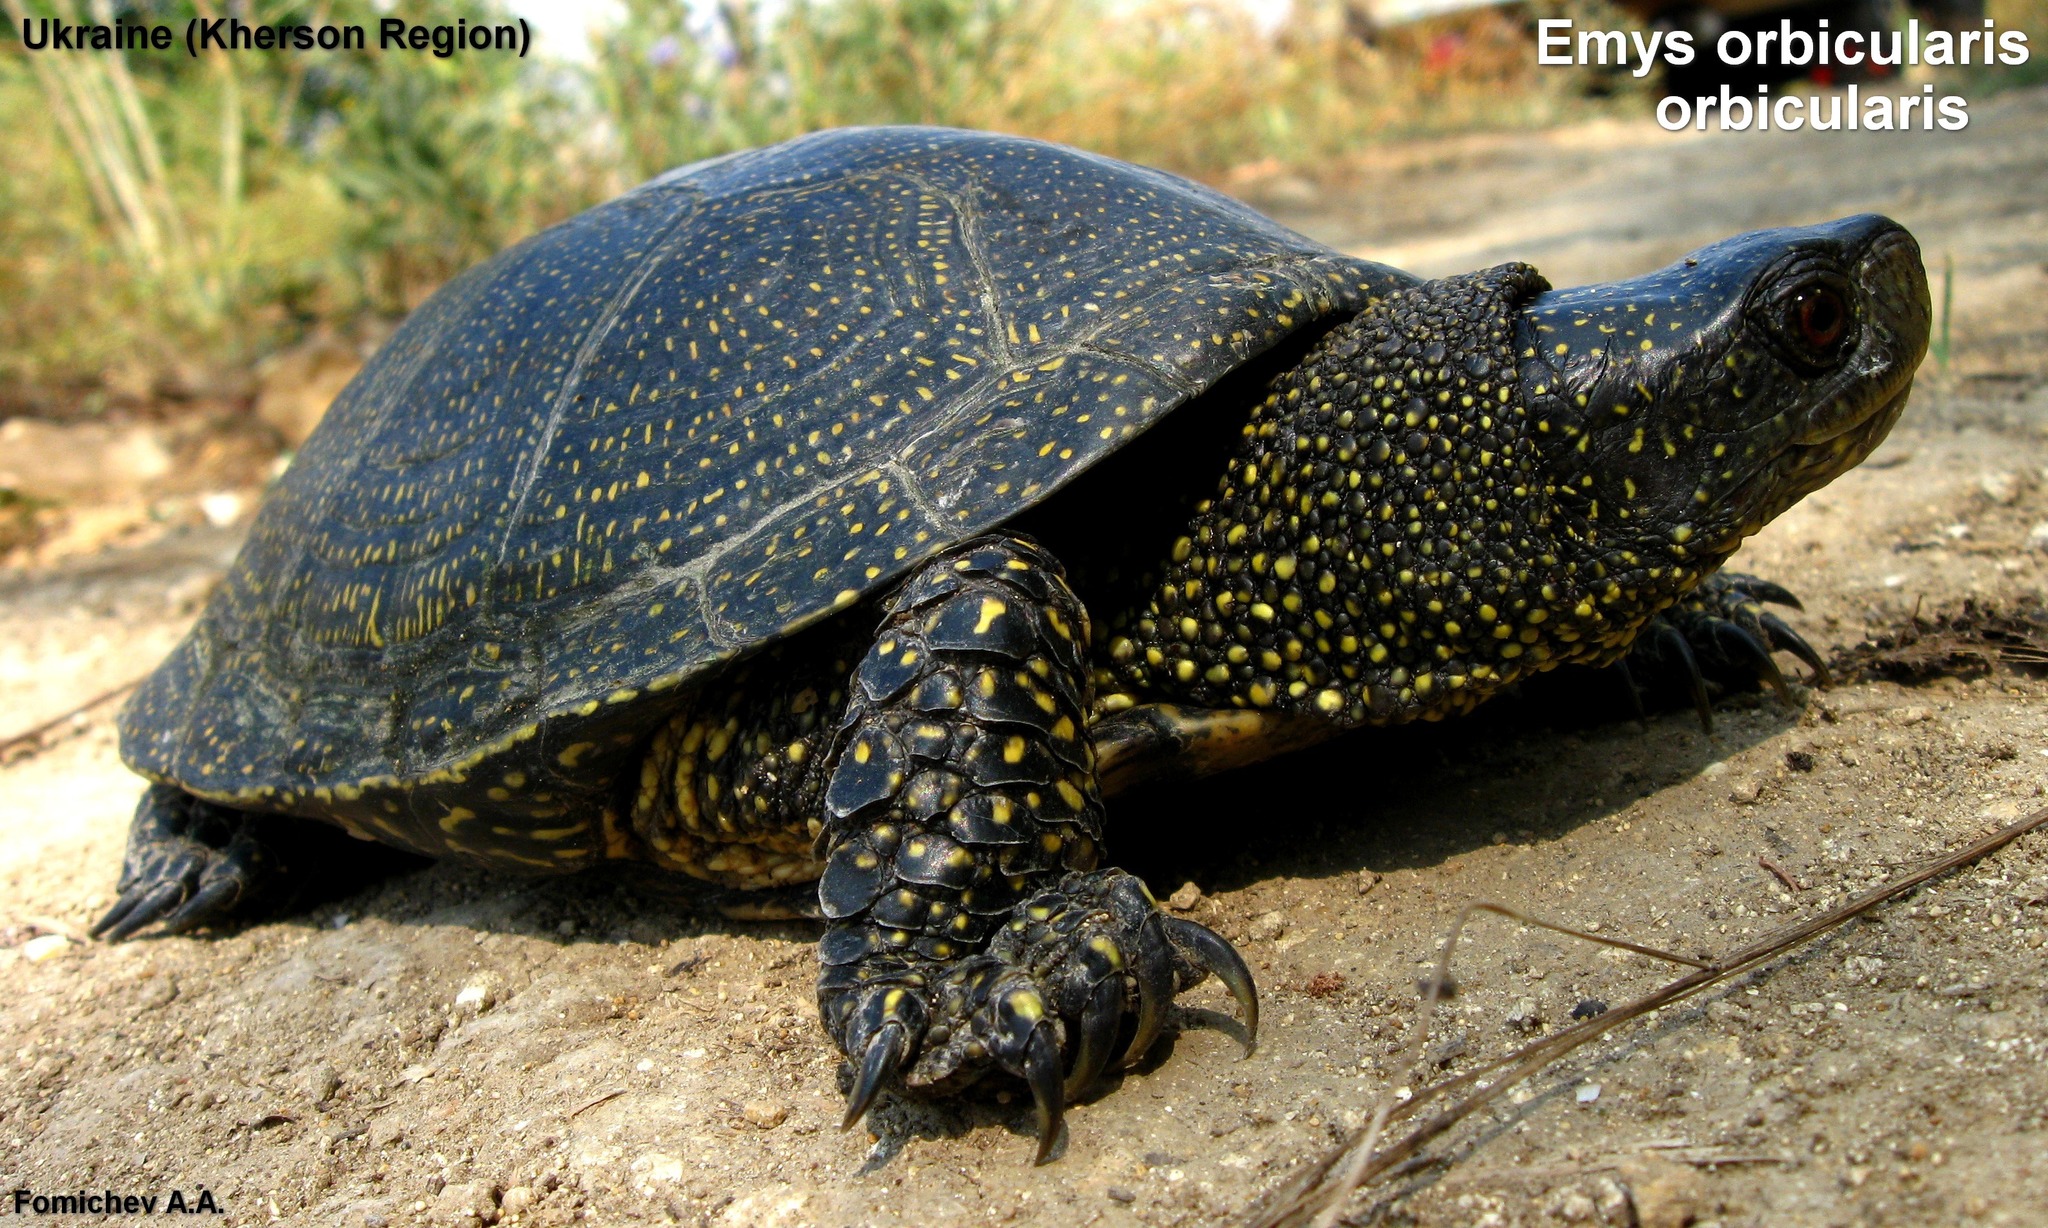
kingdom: Animalia
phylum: Chordata
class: Testudines
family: Emydidae
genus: Emys
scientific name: Emys orbicularis
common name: European pond turtle
